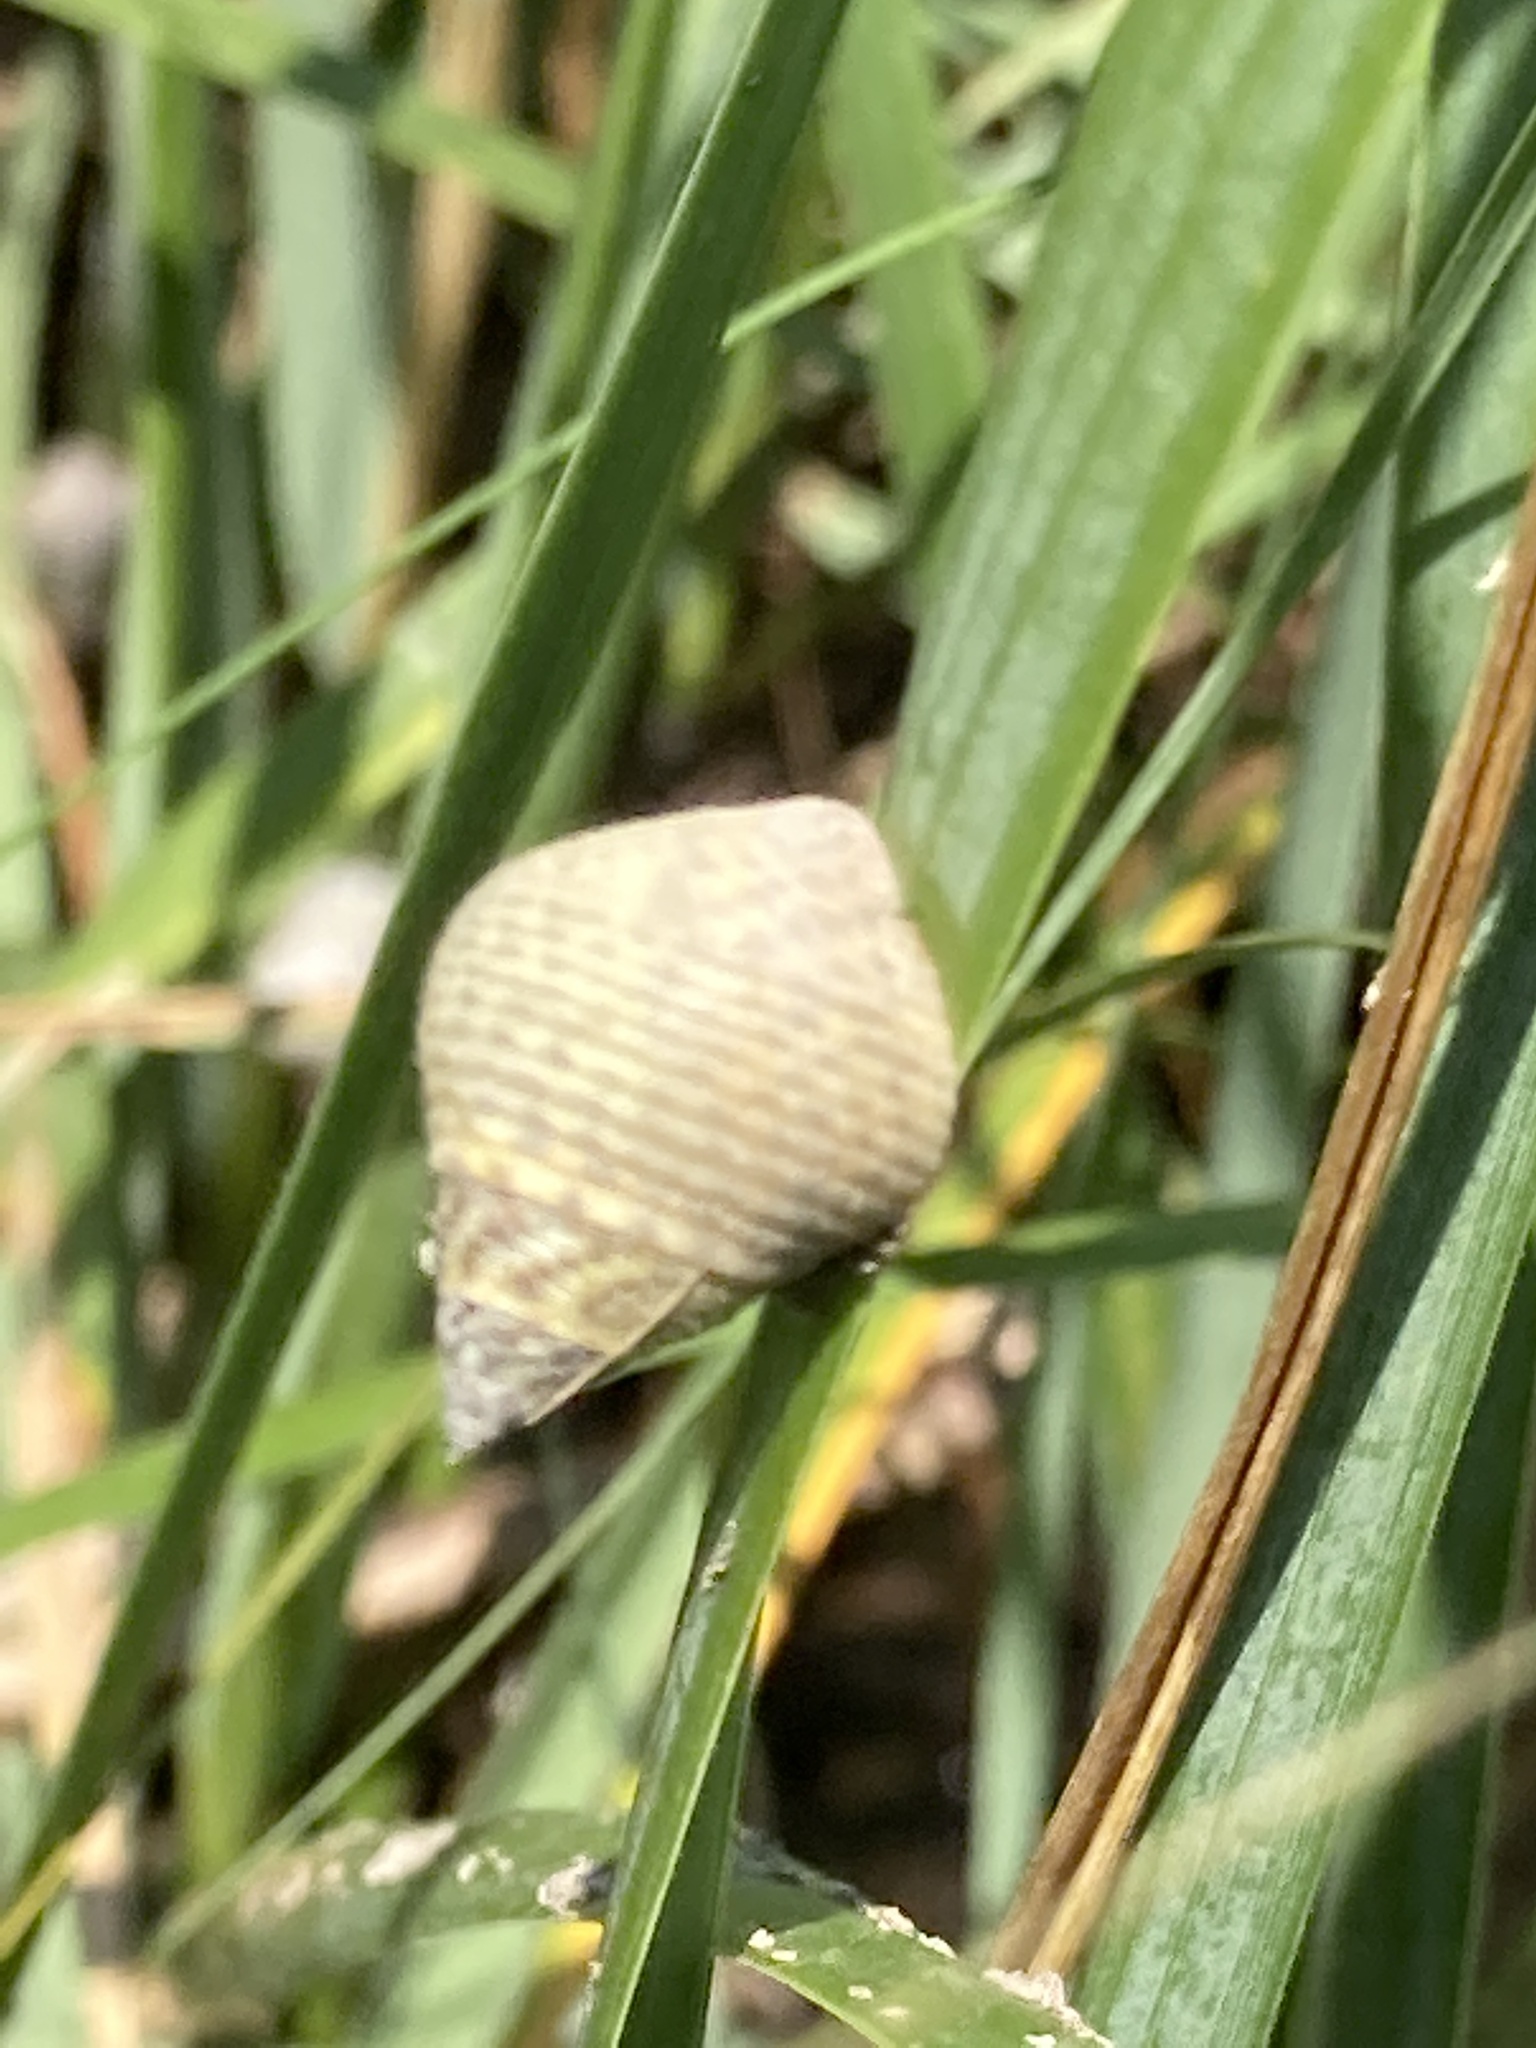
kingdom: Animalia
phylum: Mollusca
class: Gastropoda
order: Littorinimorpha
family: Littorinidae
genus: Littoraria
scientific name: Littoraria irrorata
